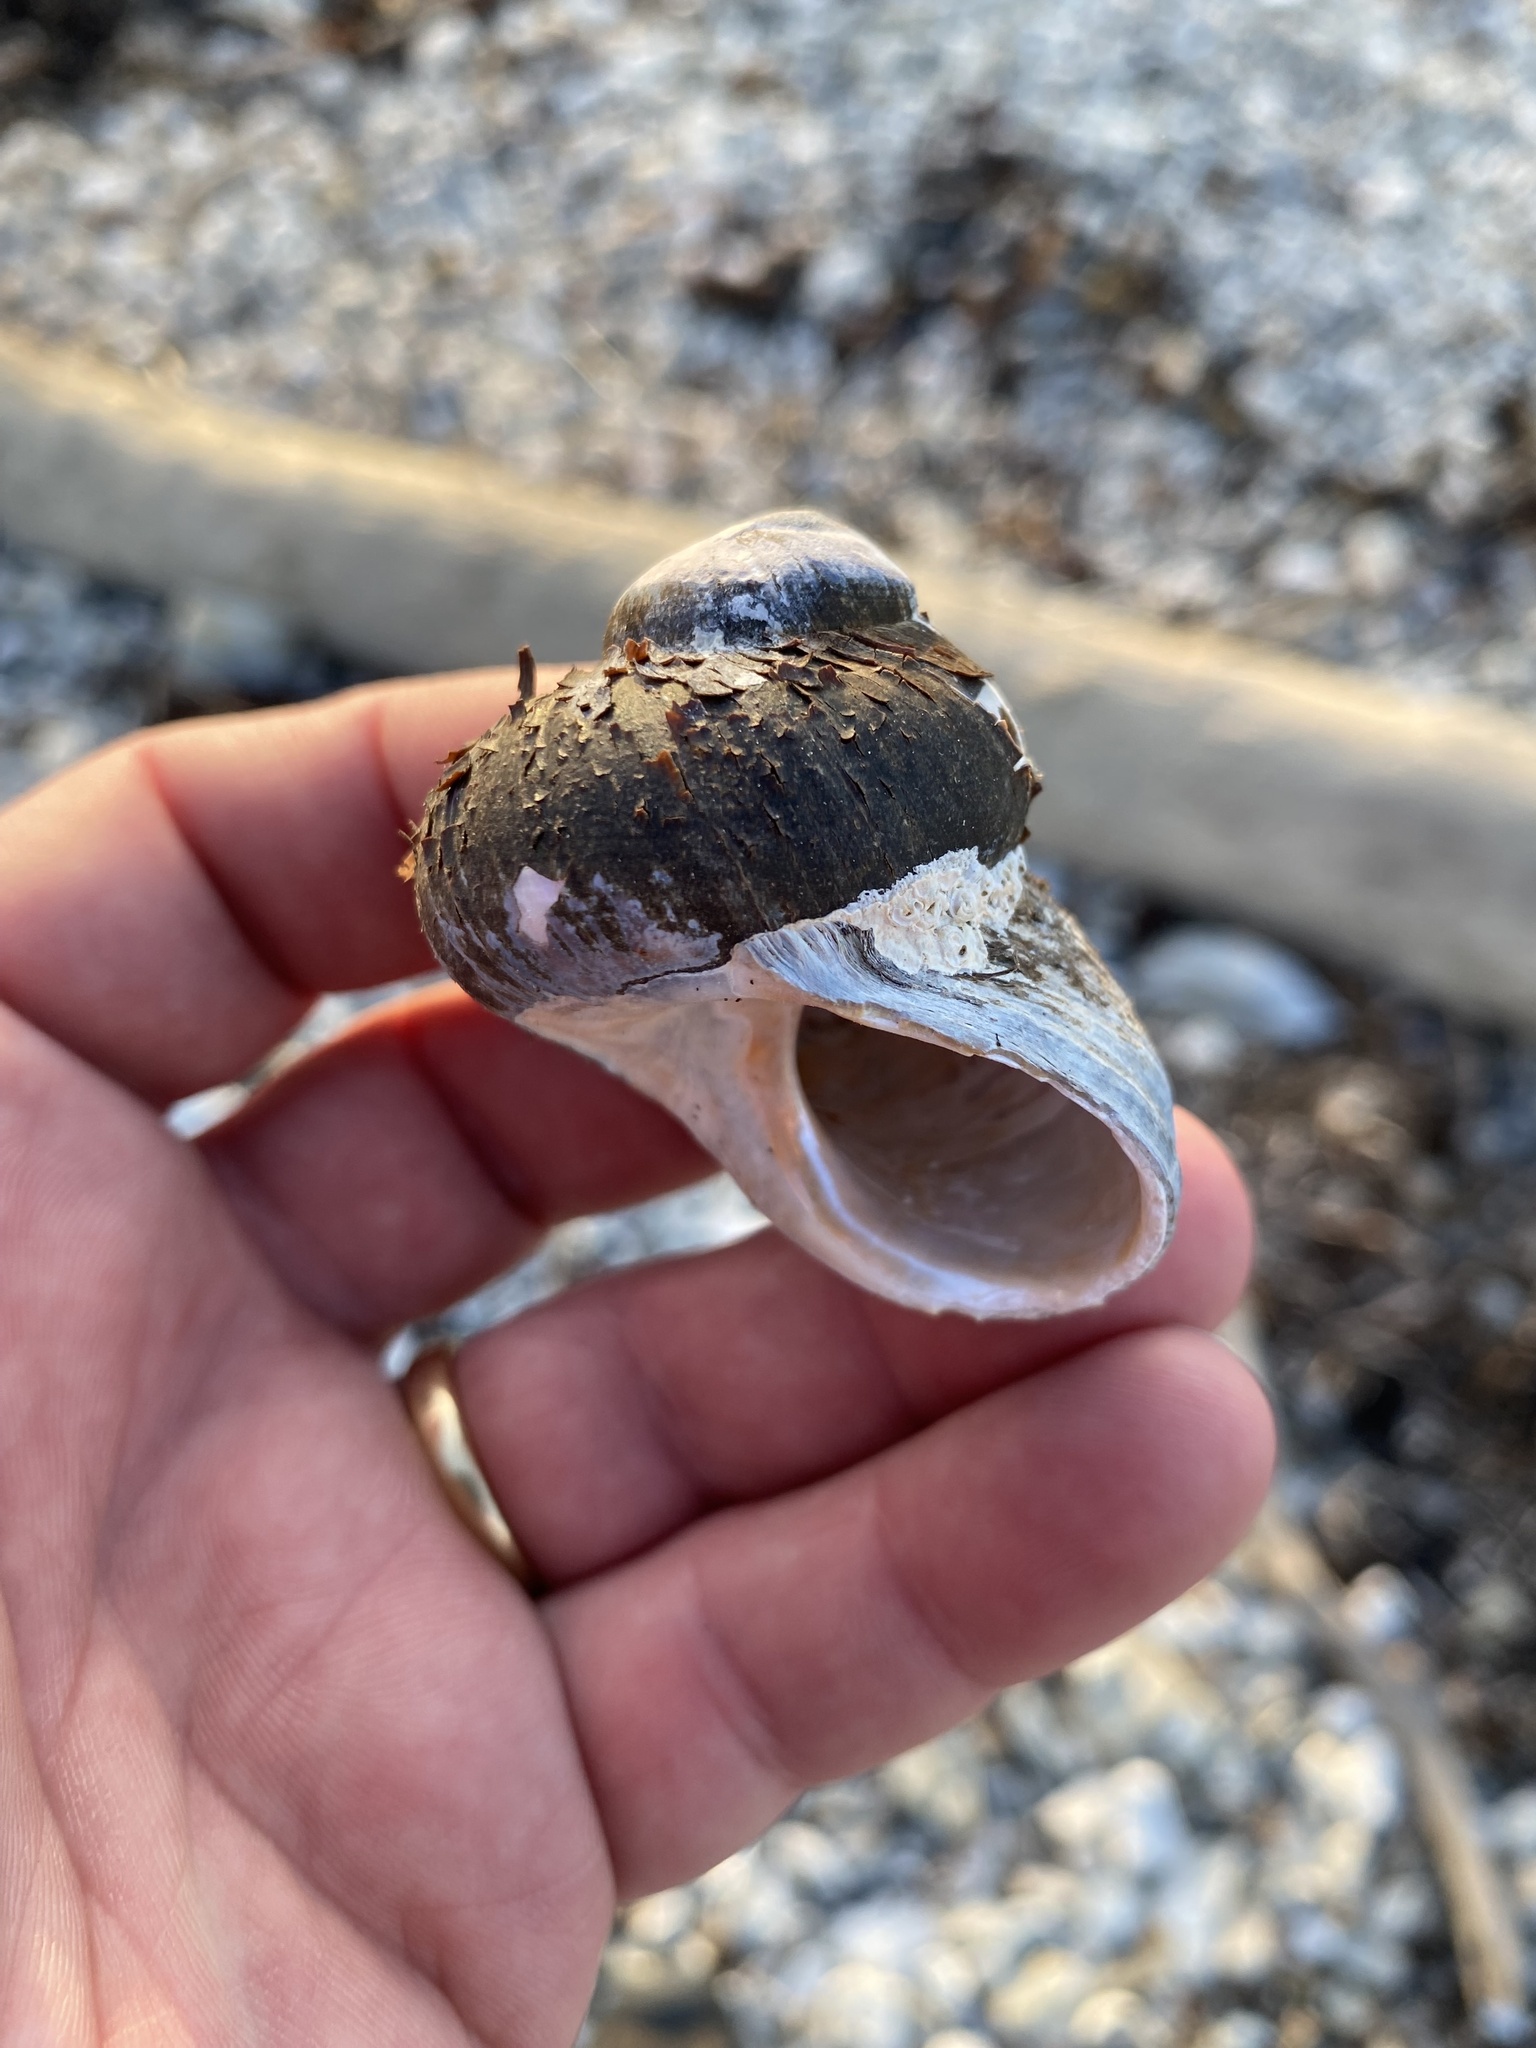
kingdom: Animalia
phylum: Mollusca
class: Gastropoda
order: Trochida
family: Turbinidae
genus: Lunella
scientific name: Lunella smaragda
